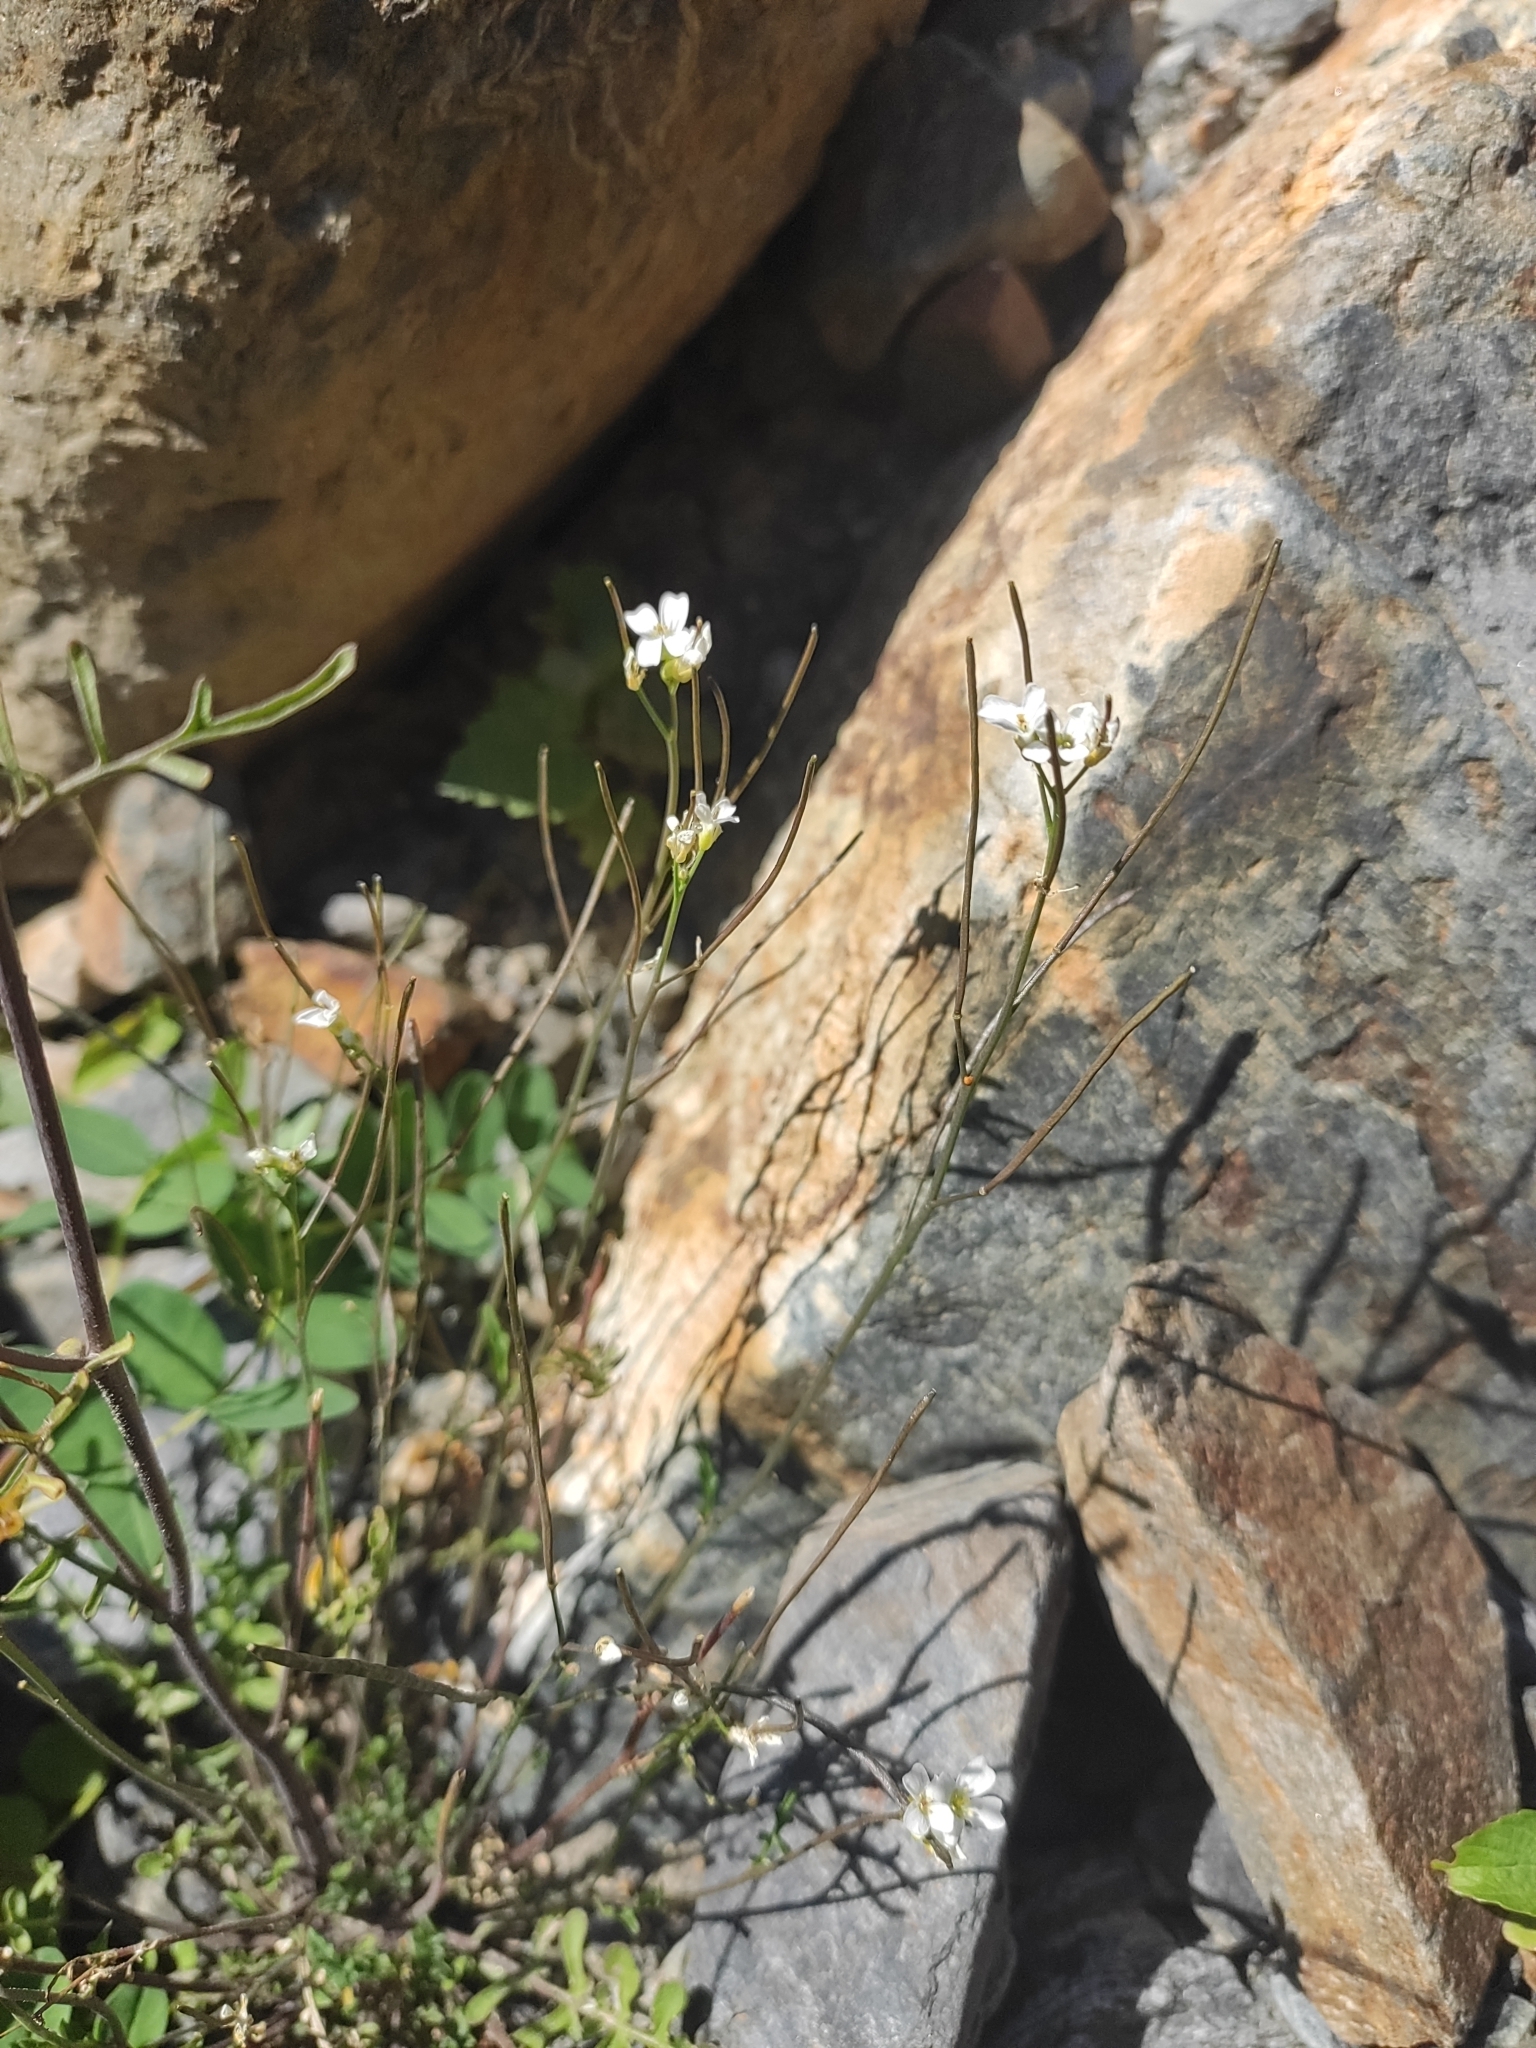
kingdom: Plantae
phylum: Tracheophyta
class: Magnoliopsida
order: Brassicales
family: Brassicaceae
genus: Murbeckiella
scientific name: Murbeckiella huetii
